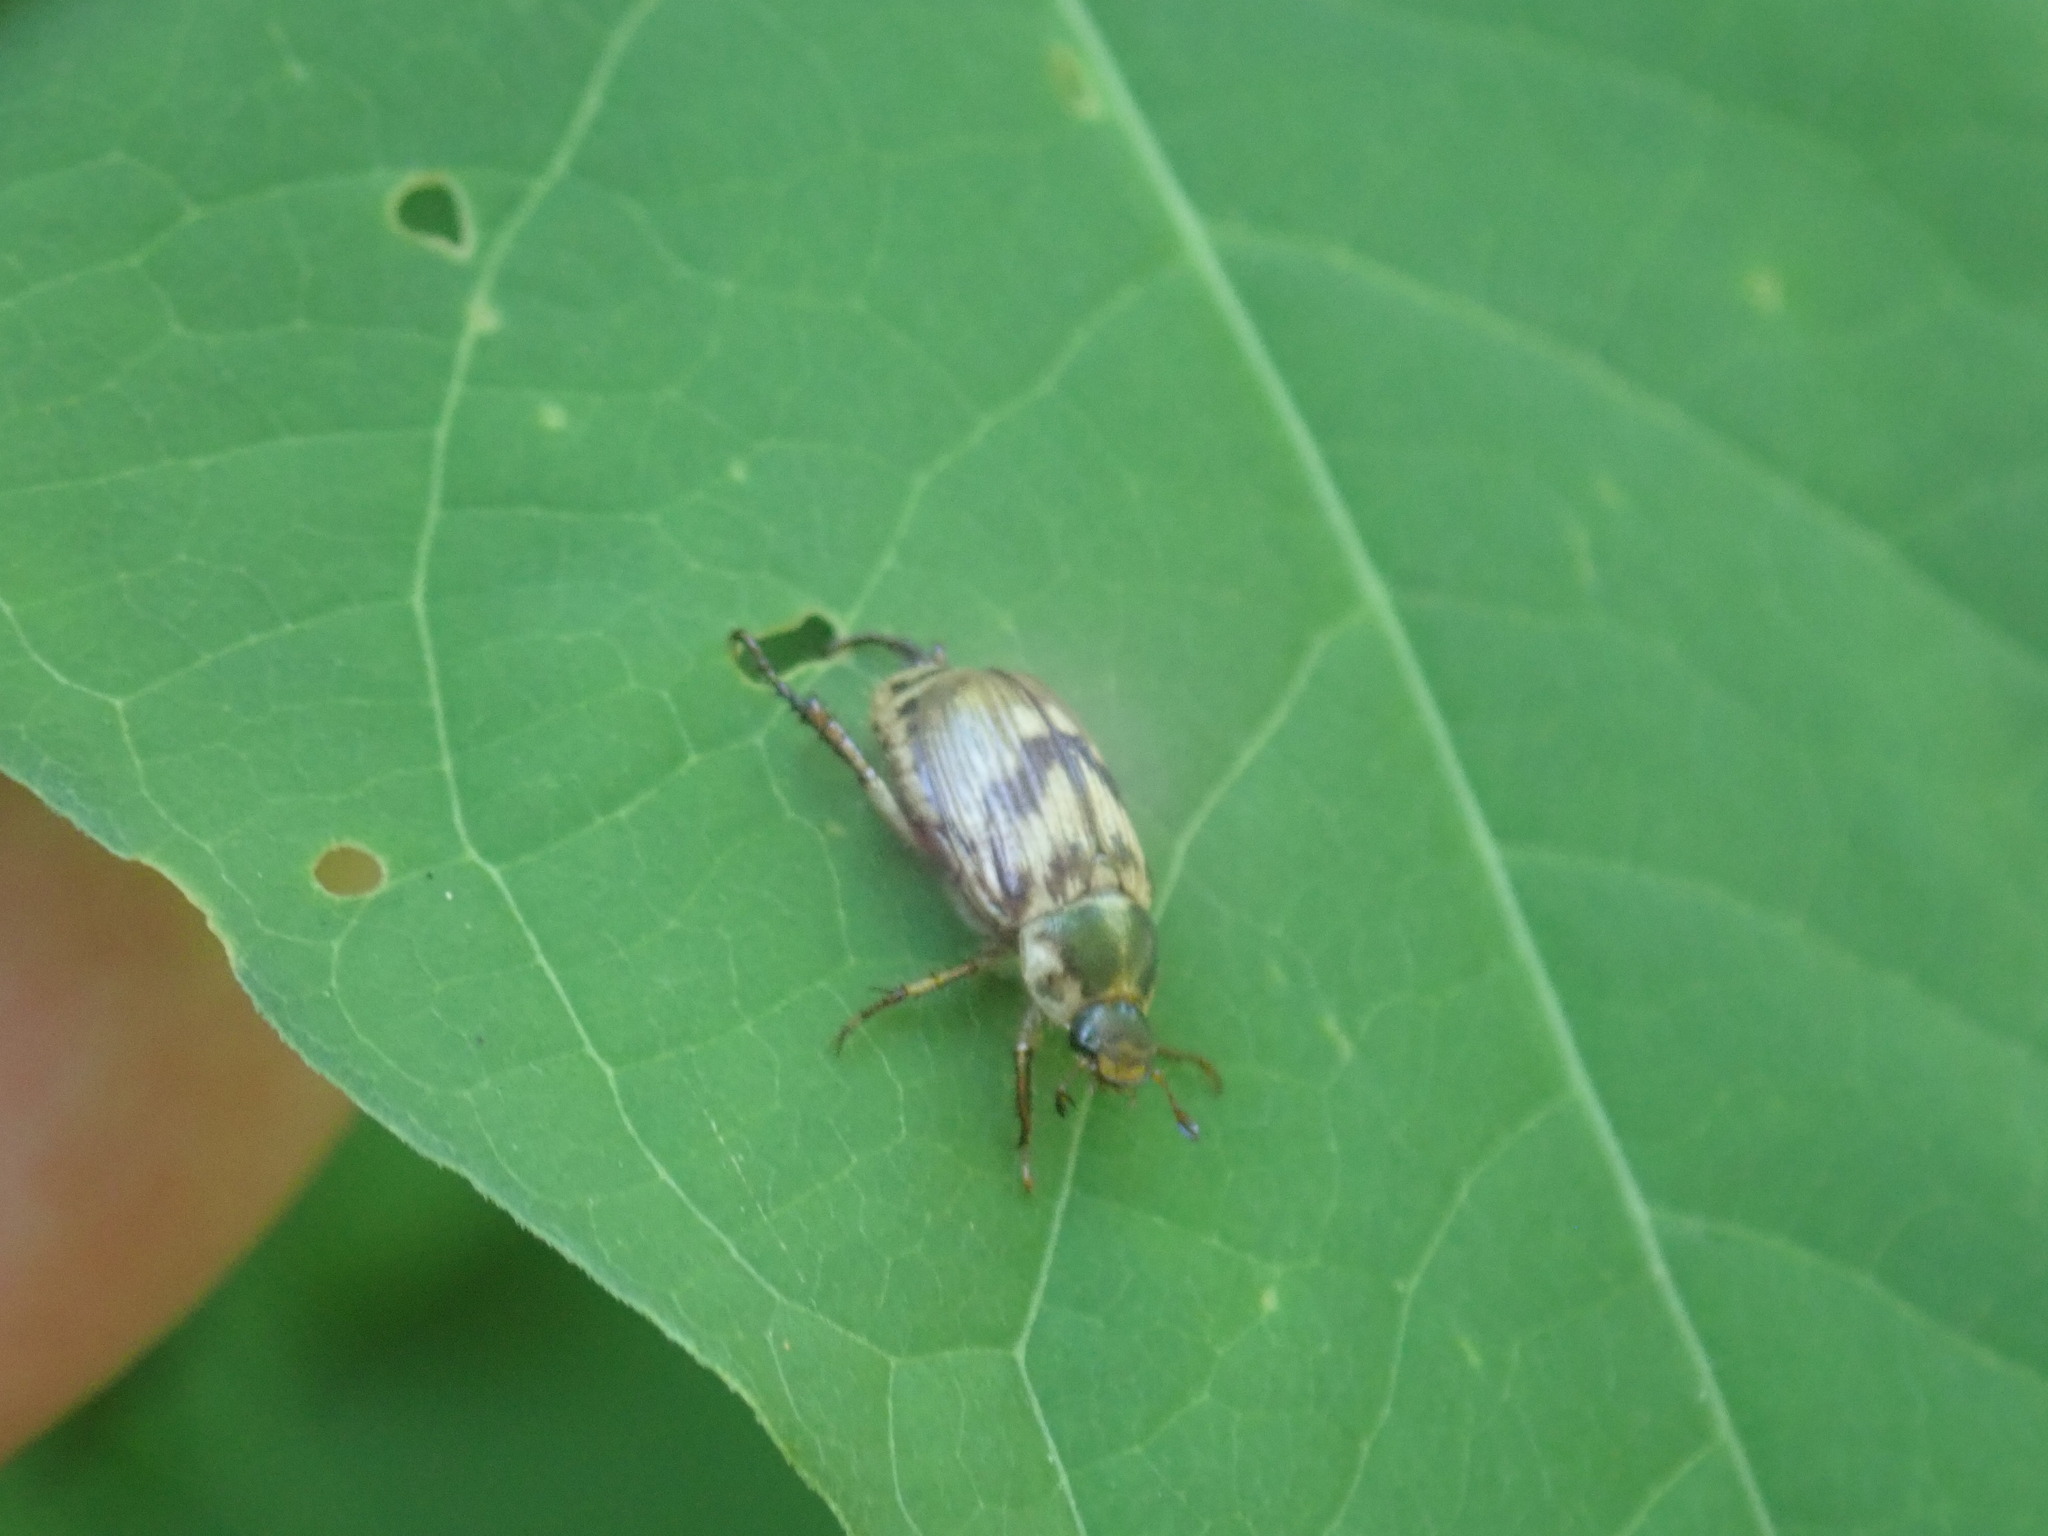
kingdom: Animalia
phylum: Arthropoda
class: Insecta
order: Coleoptera
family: Scarabaeidae
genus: Exomala
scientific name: Exomala orientalis
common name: Oriental beetle
